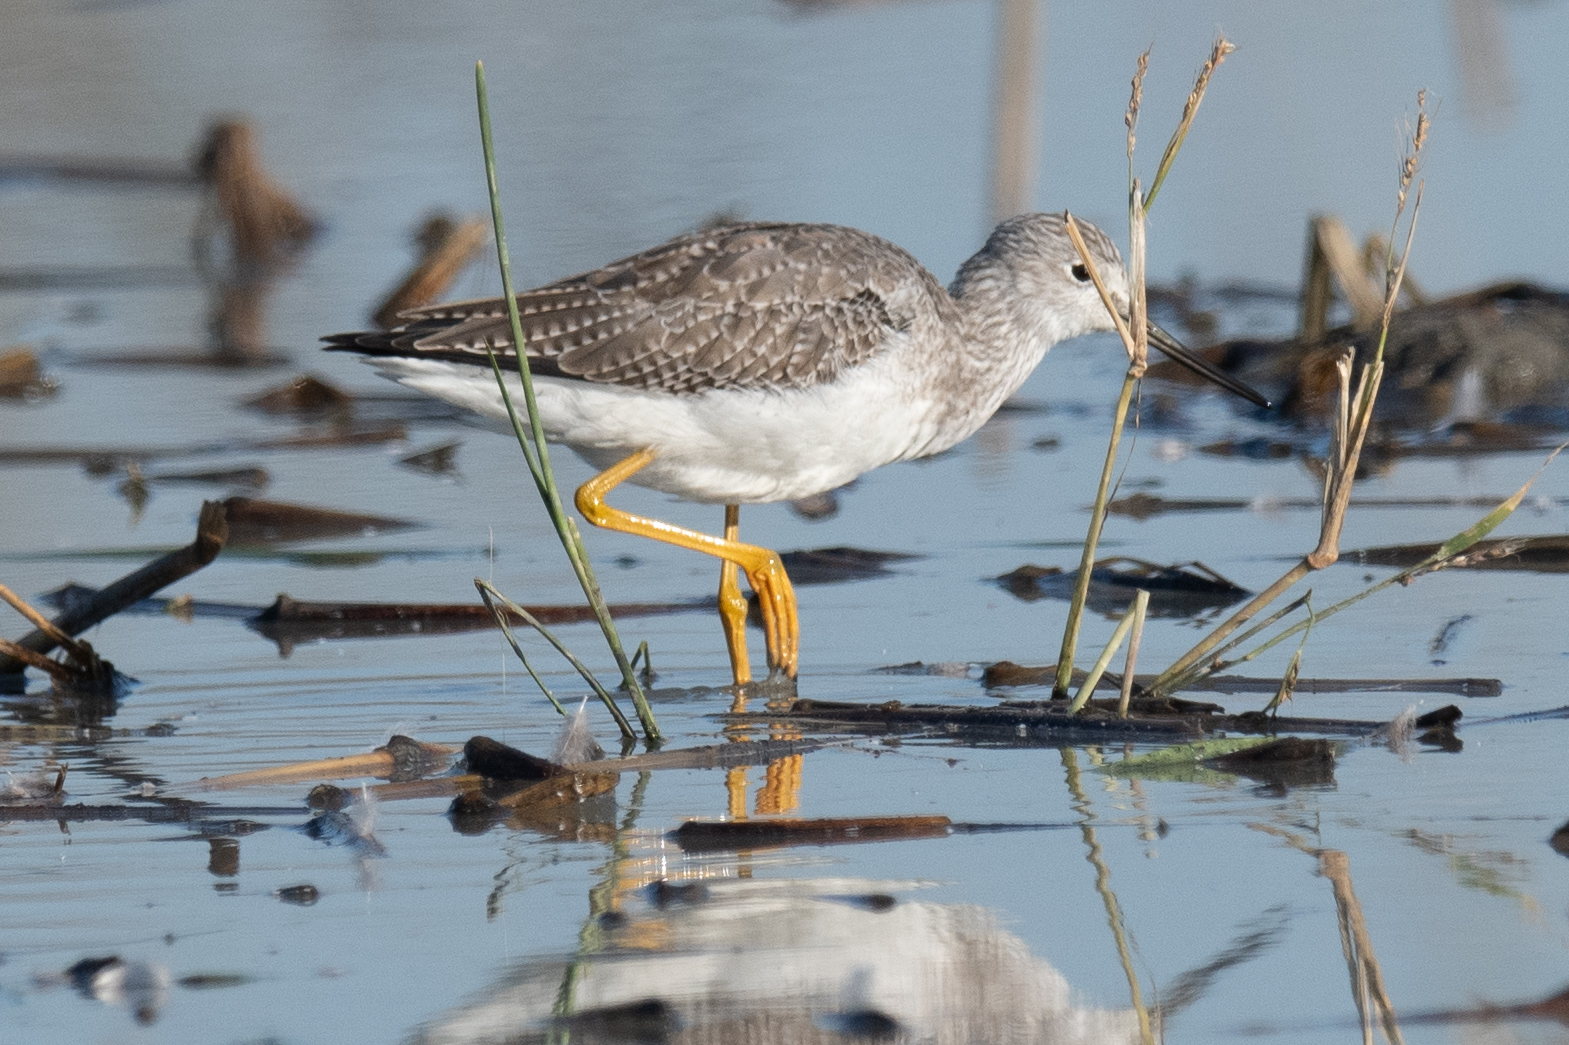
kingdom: Animalia
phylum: Chordata
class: Aves
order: Charadriiformes
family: Scolopacidae
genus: Tringa
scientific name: Tringa melanoleuca
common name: Greater yellowlegs
